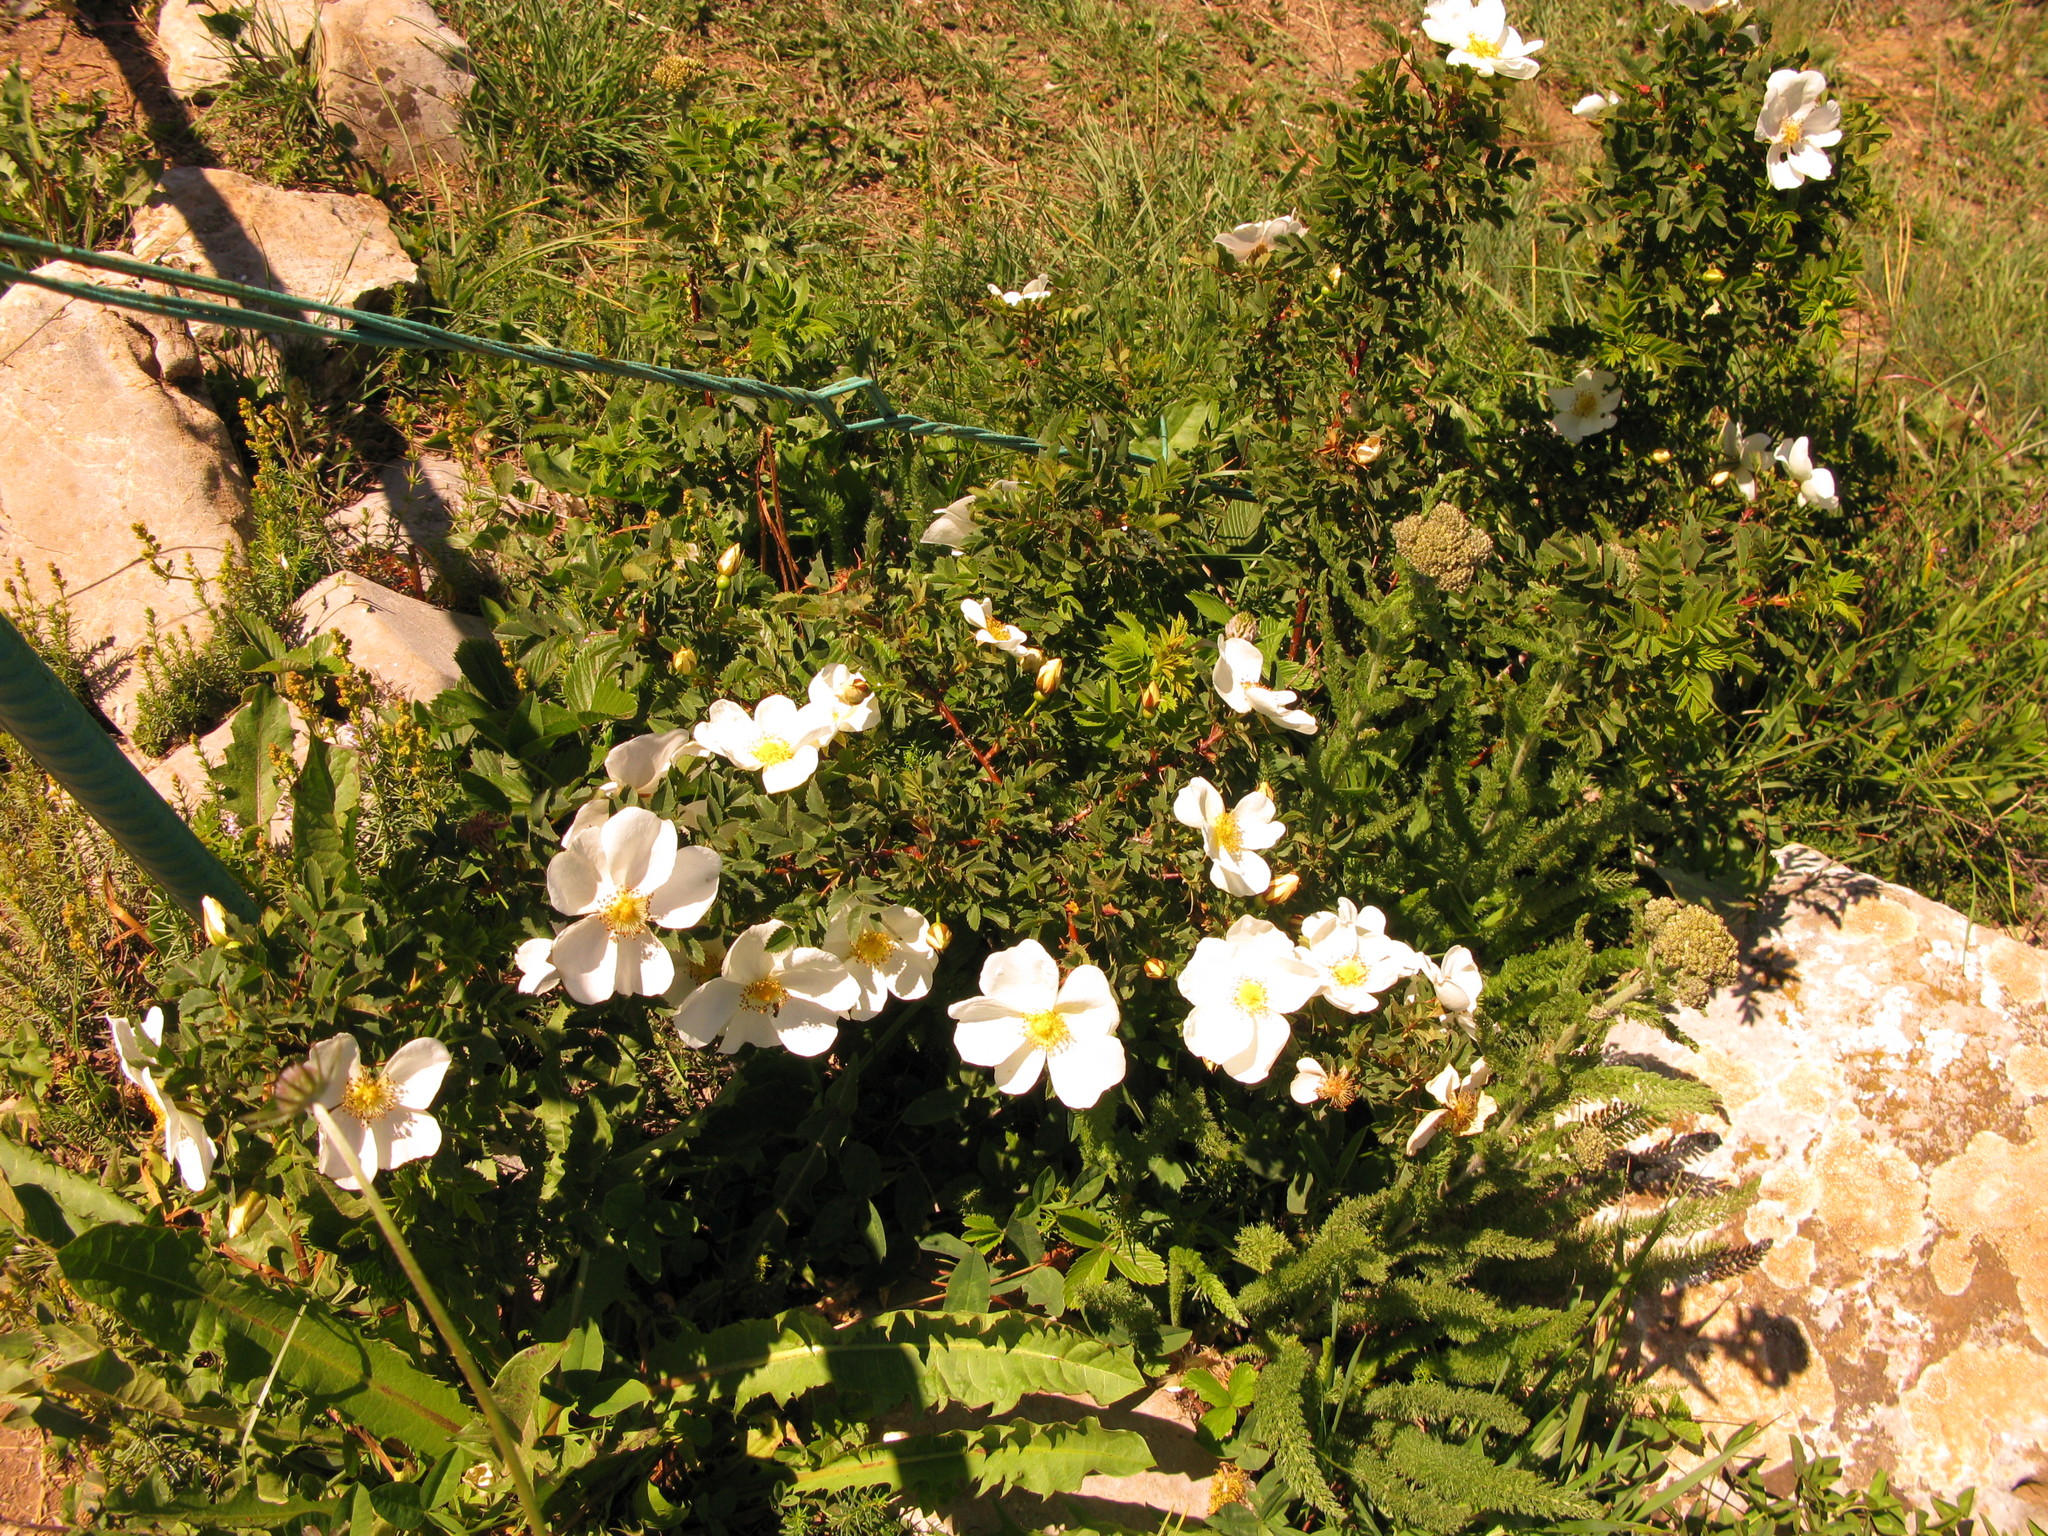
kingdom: Plantae
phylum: Tracheophyta
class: Magnoliopsida
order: Rosales
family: Rosaceae
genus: Rosa
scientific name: Rosa spinosissima
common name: Burnet rose
